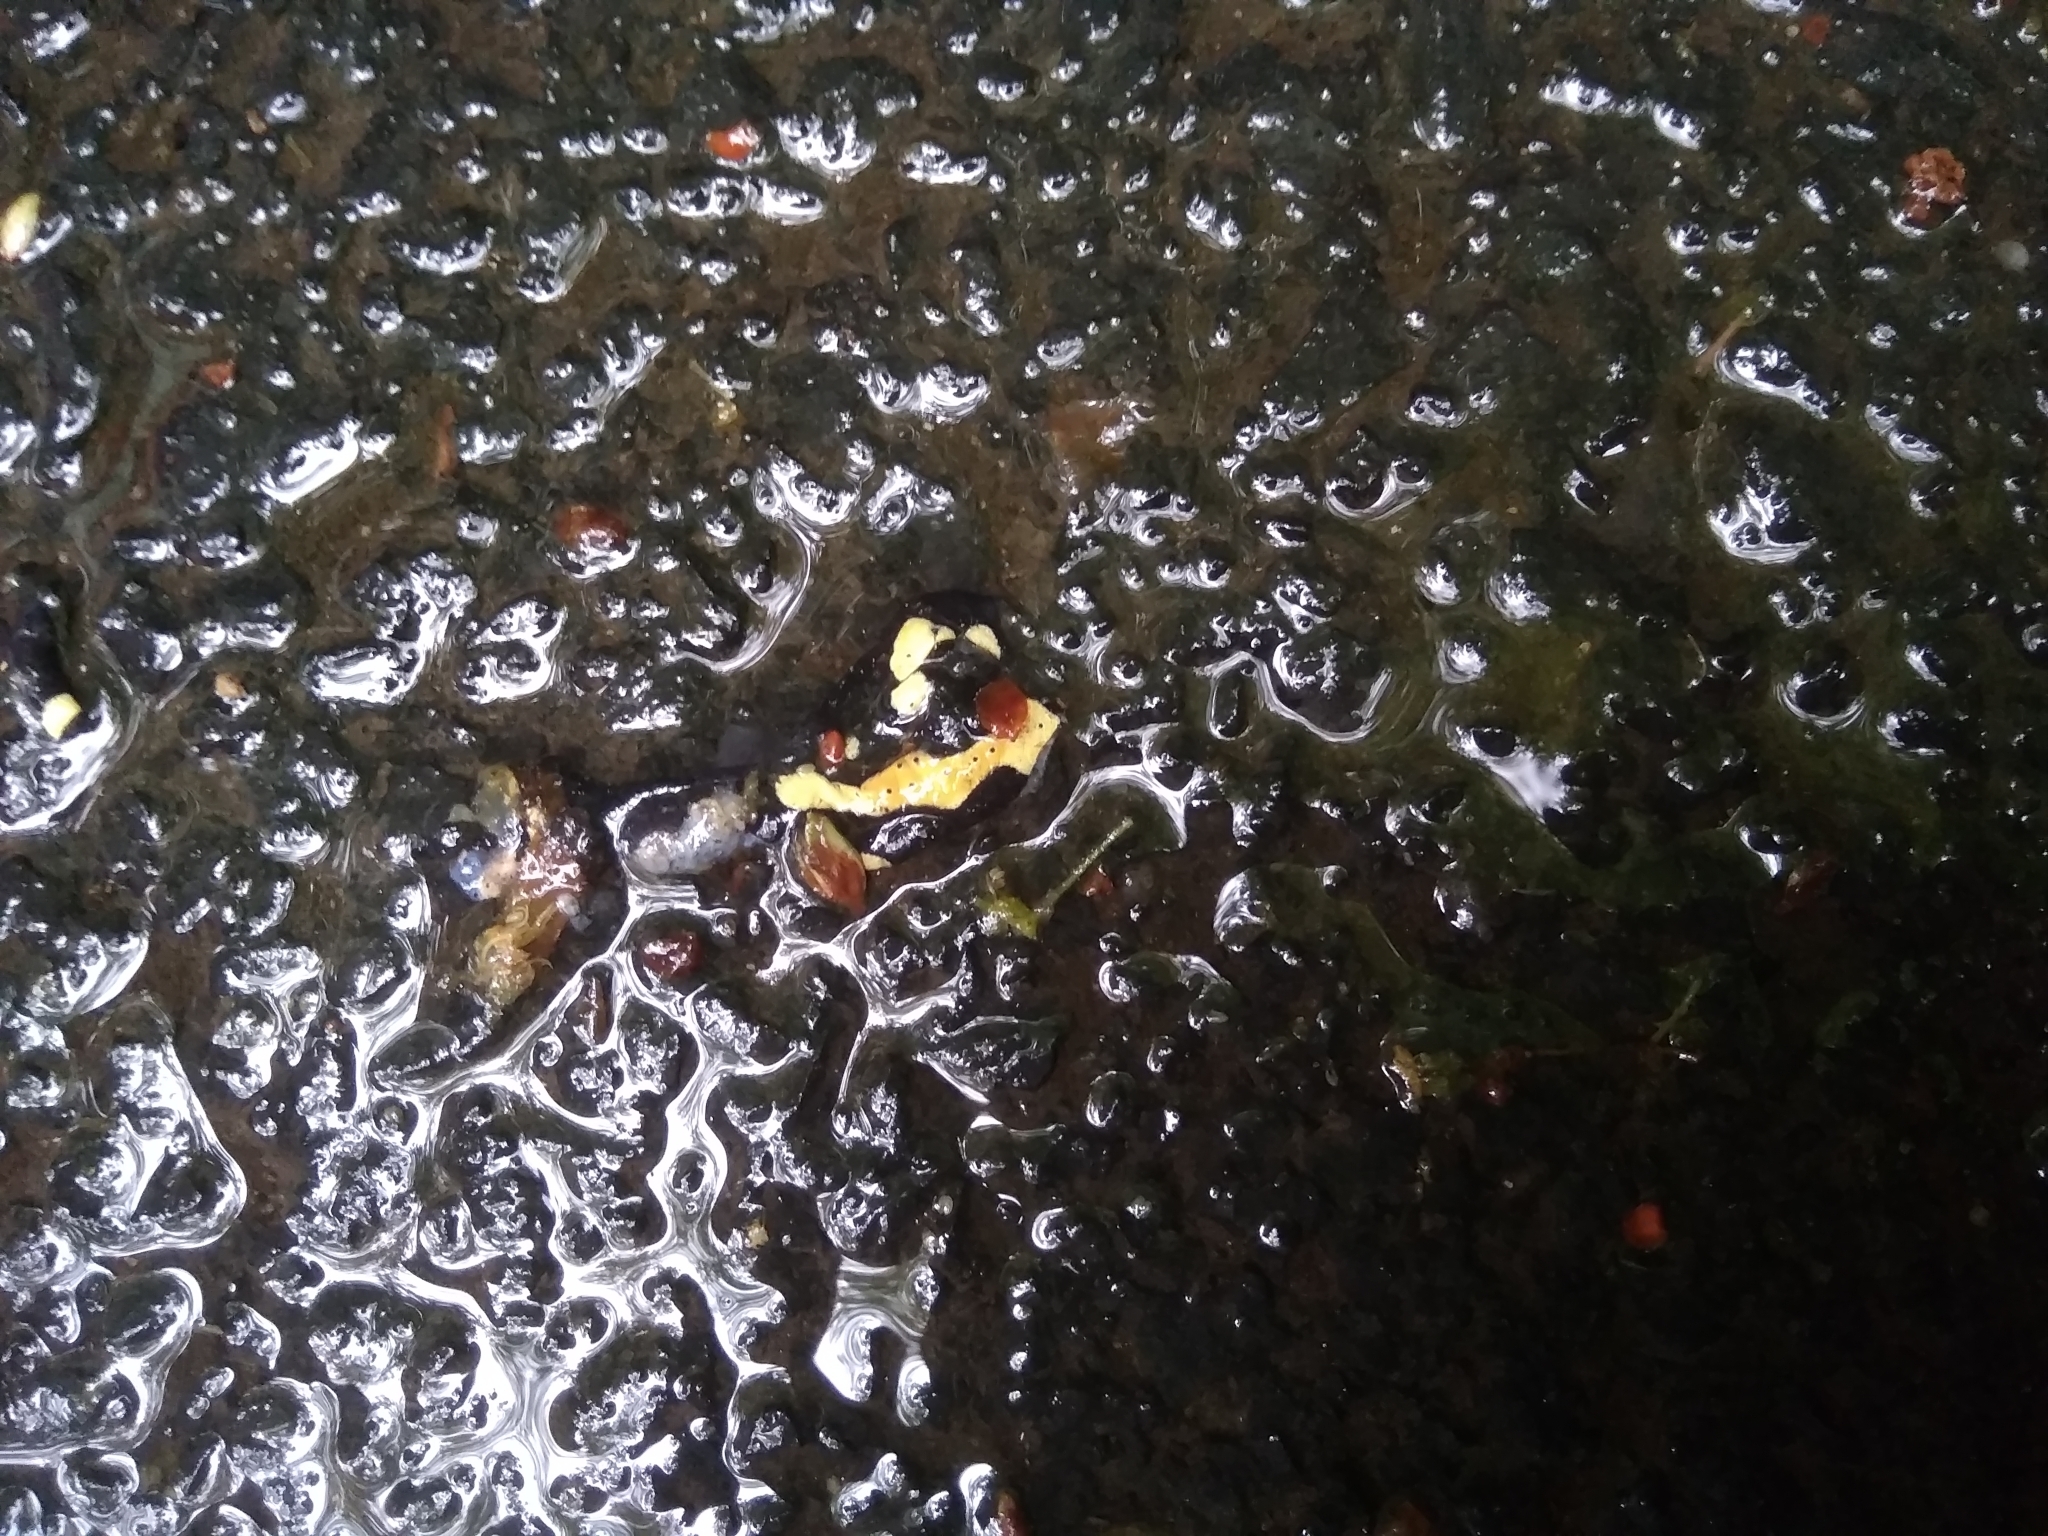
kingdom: Animalia
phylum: Chordata
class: Amphibia
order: Caudata
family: Salamandridae
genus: Salamandra
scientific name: Salamandra salamandra
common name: Fire salamander
